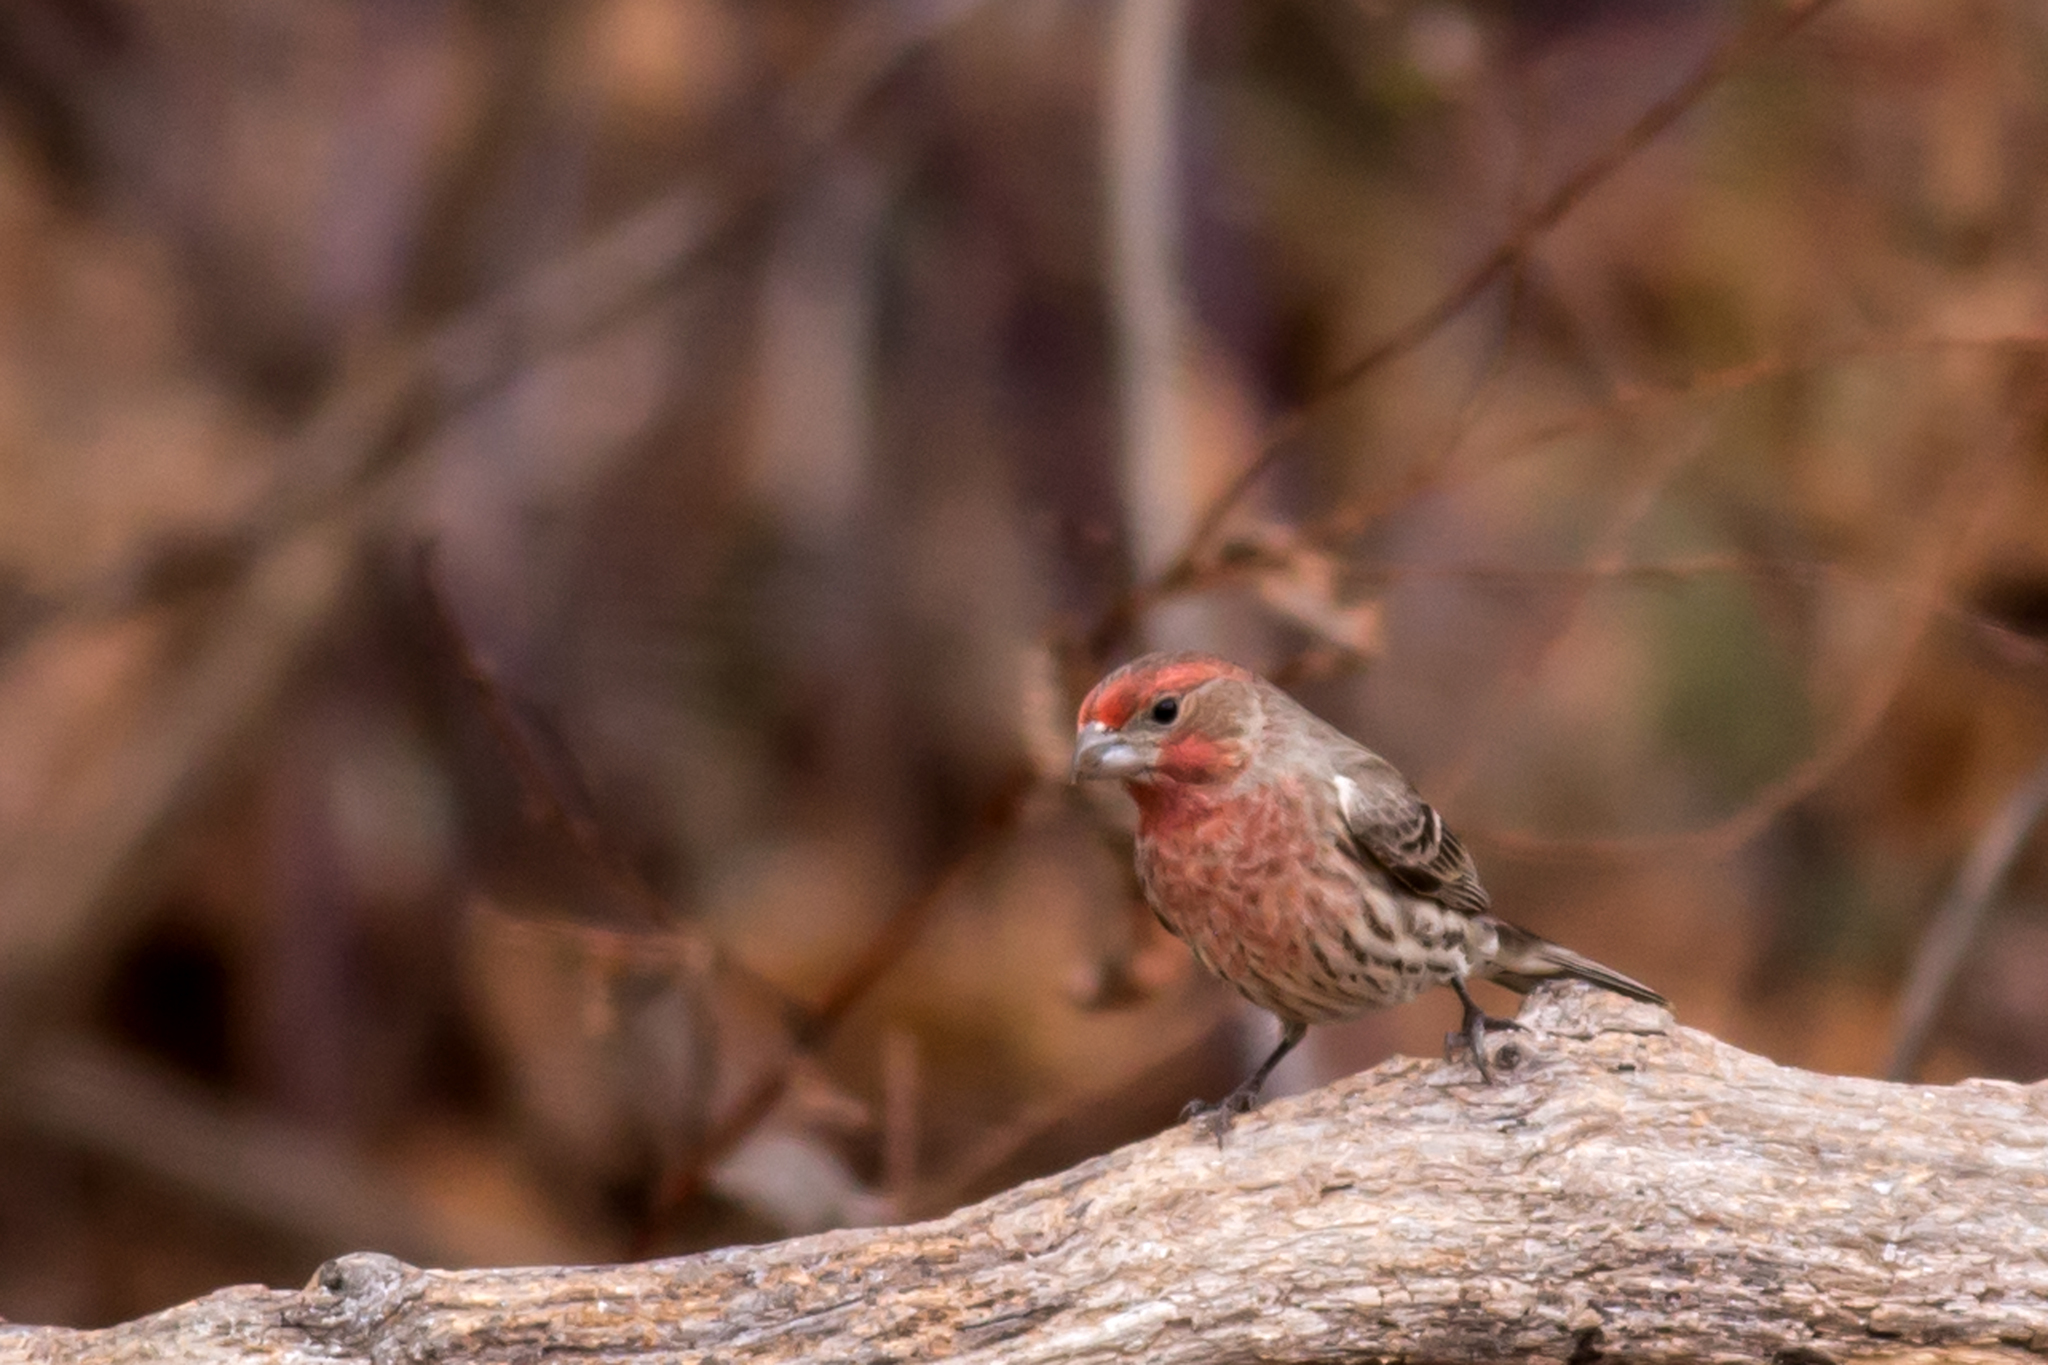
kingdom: Animalia
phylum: Chordata
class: Aves
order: Passeriformes
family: Fringillidae
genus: Haemorhous
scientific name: Haemorhous mexicanus
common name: House finch
